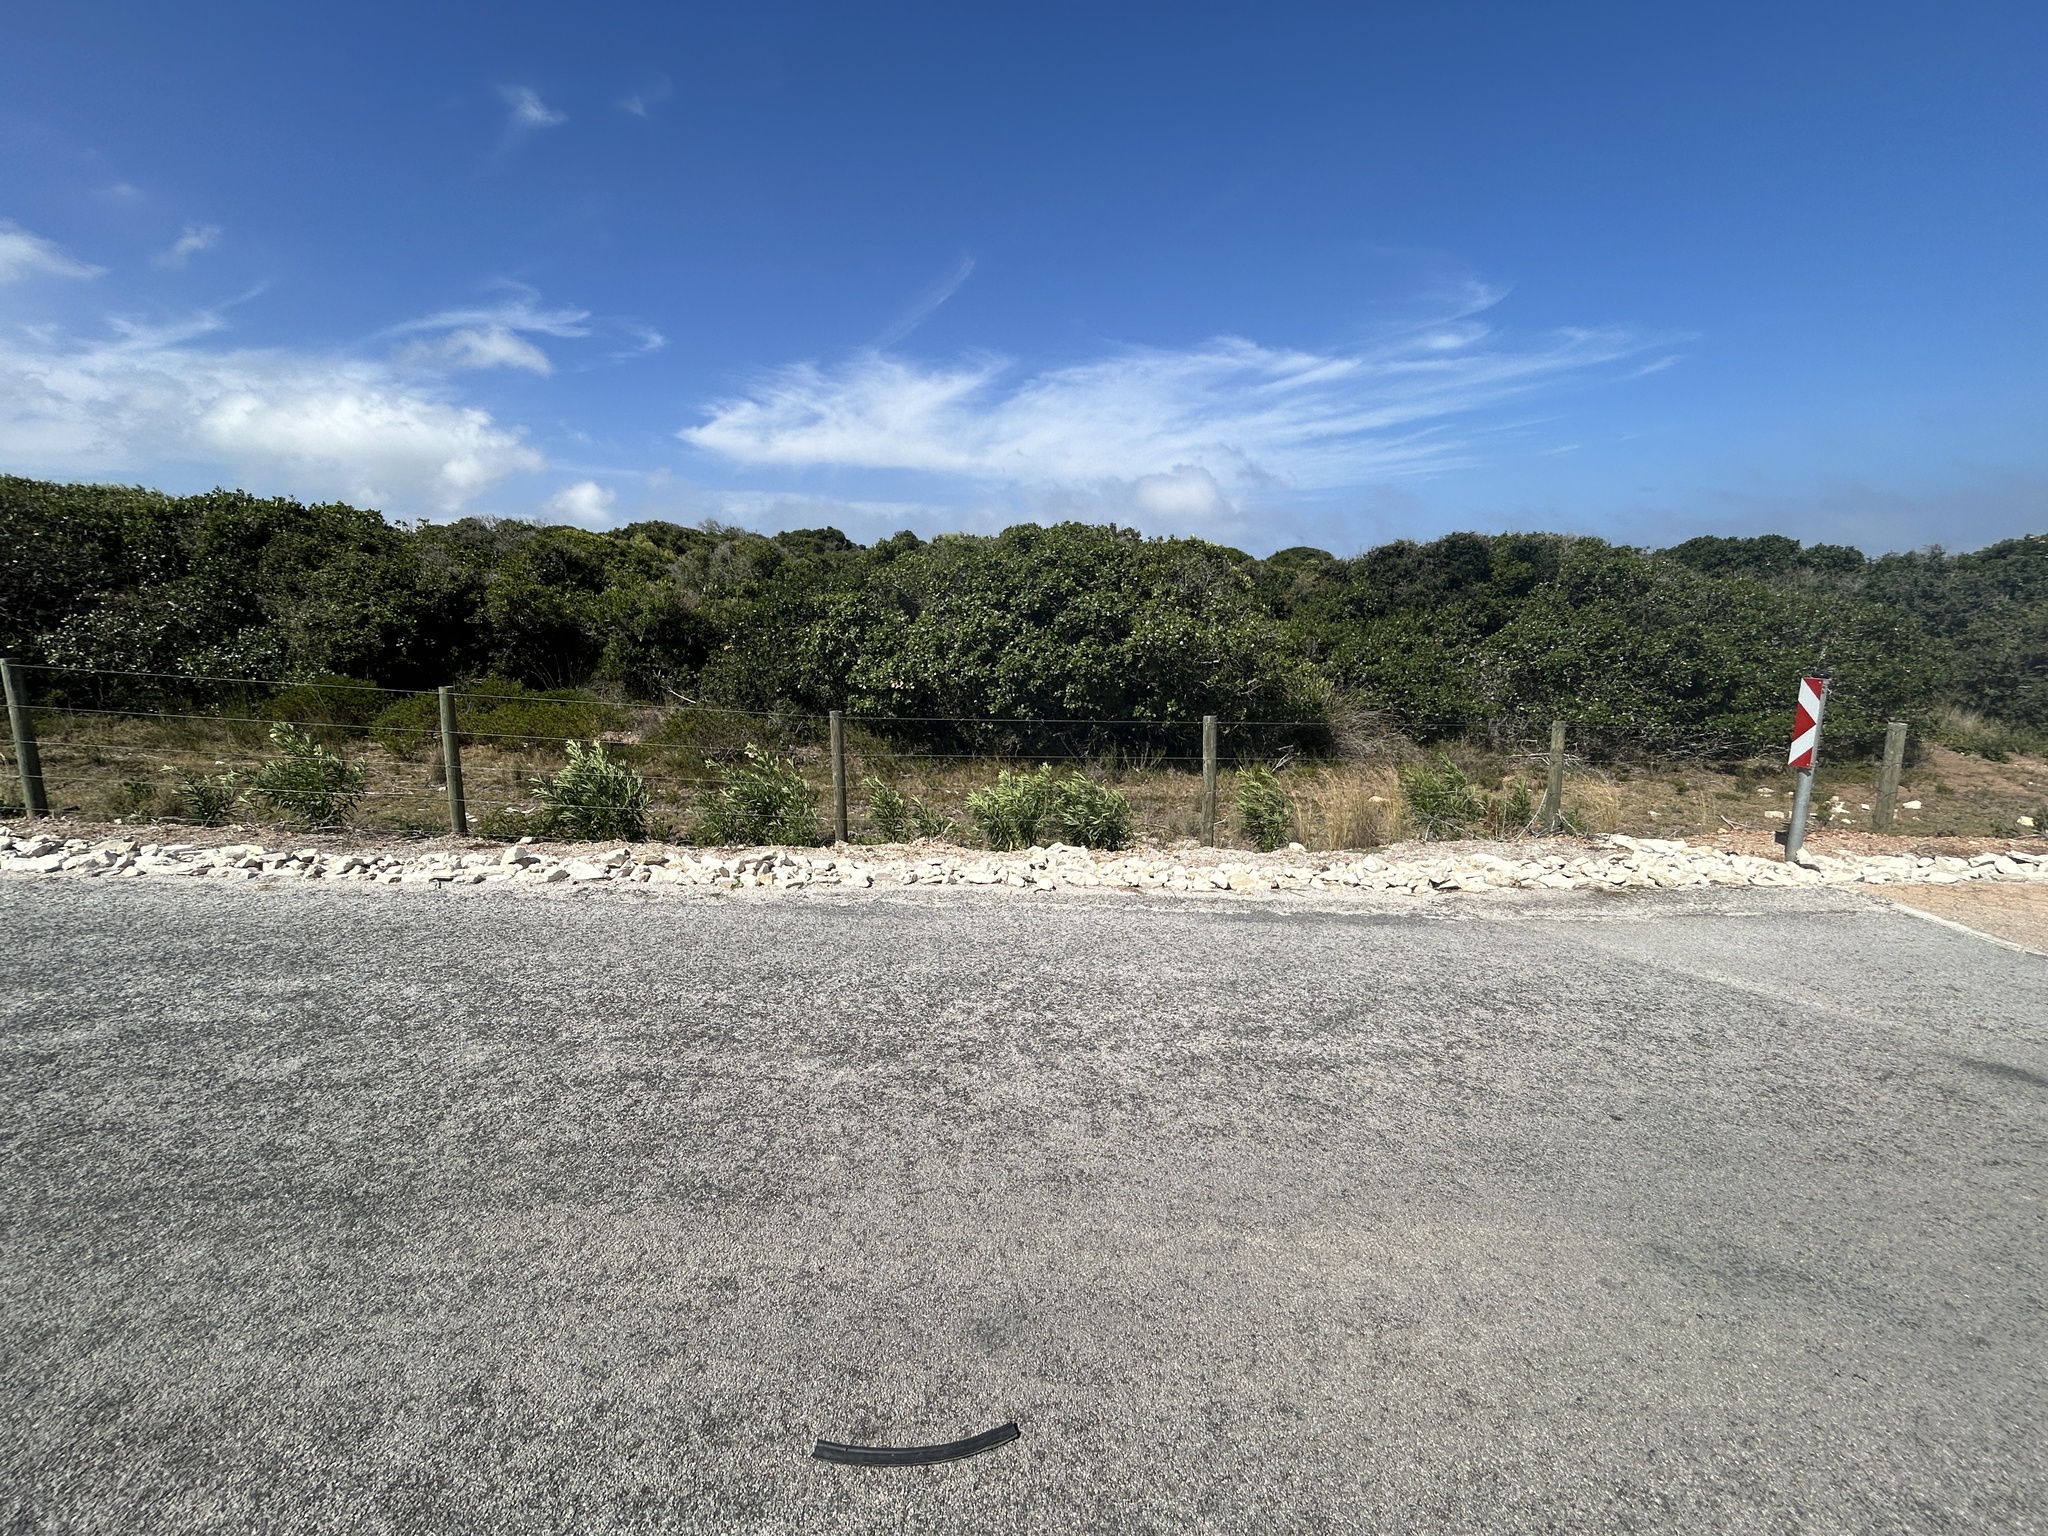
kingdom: Plantae
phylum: Tracheophyta
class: Magnoliopsida
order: Gentianales
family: Apocynaceae
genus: Gomphocarpus
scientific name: Gomphocarpus fruticosus
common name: Milkweed
